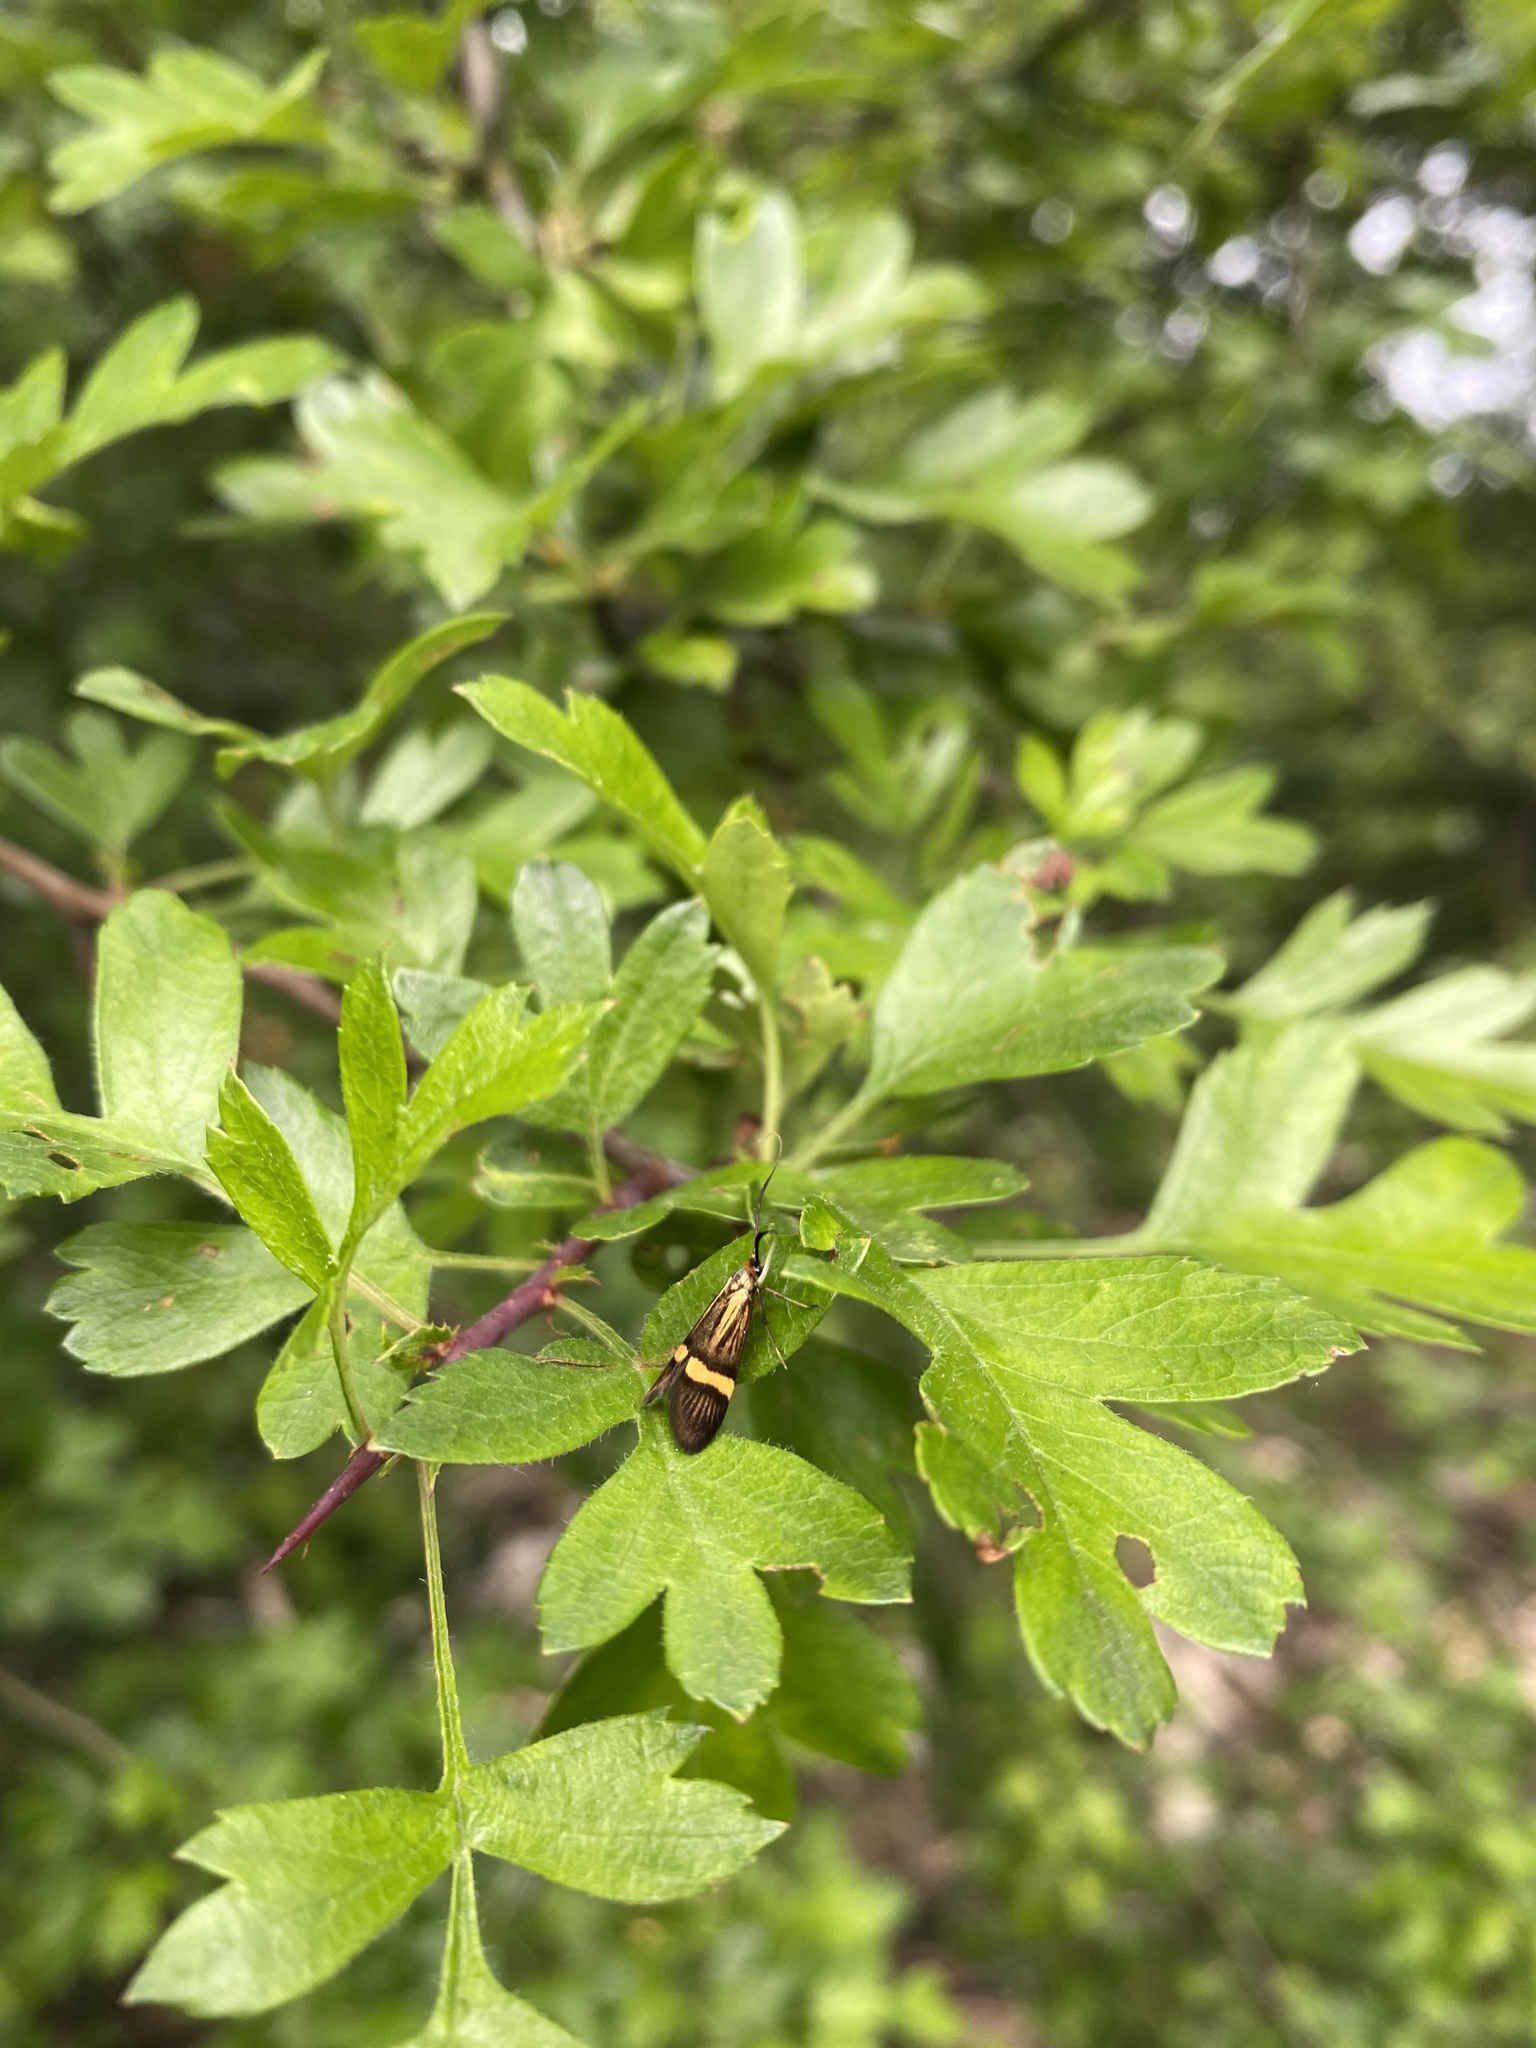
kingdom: Animalia
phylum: Arthropoda
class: Insecta
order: Lepidoptera
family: Adelidae
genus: Nemophora
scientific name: Nemophora degeerella
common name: Yellow-barred long-horn
